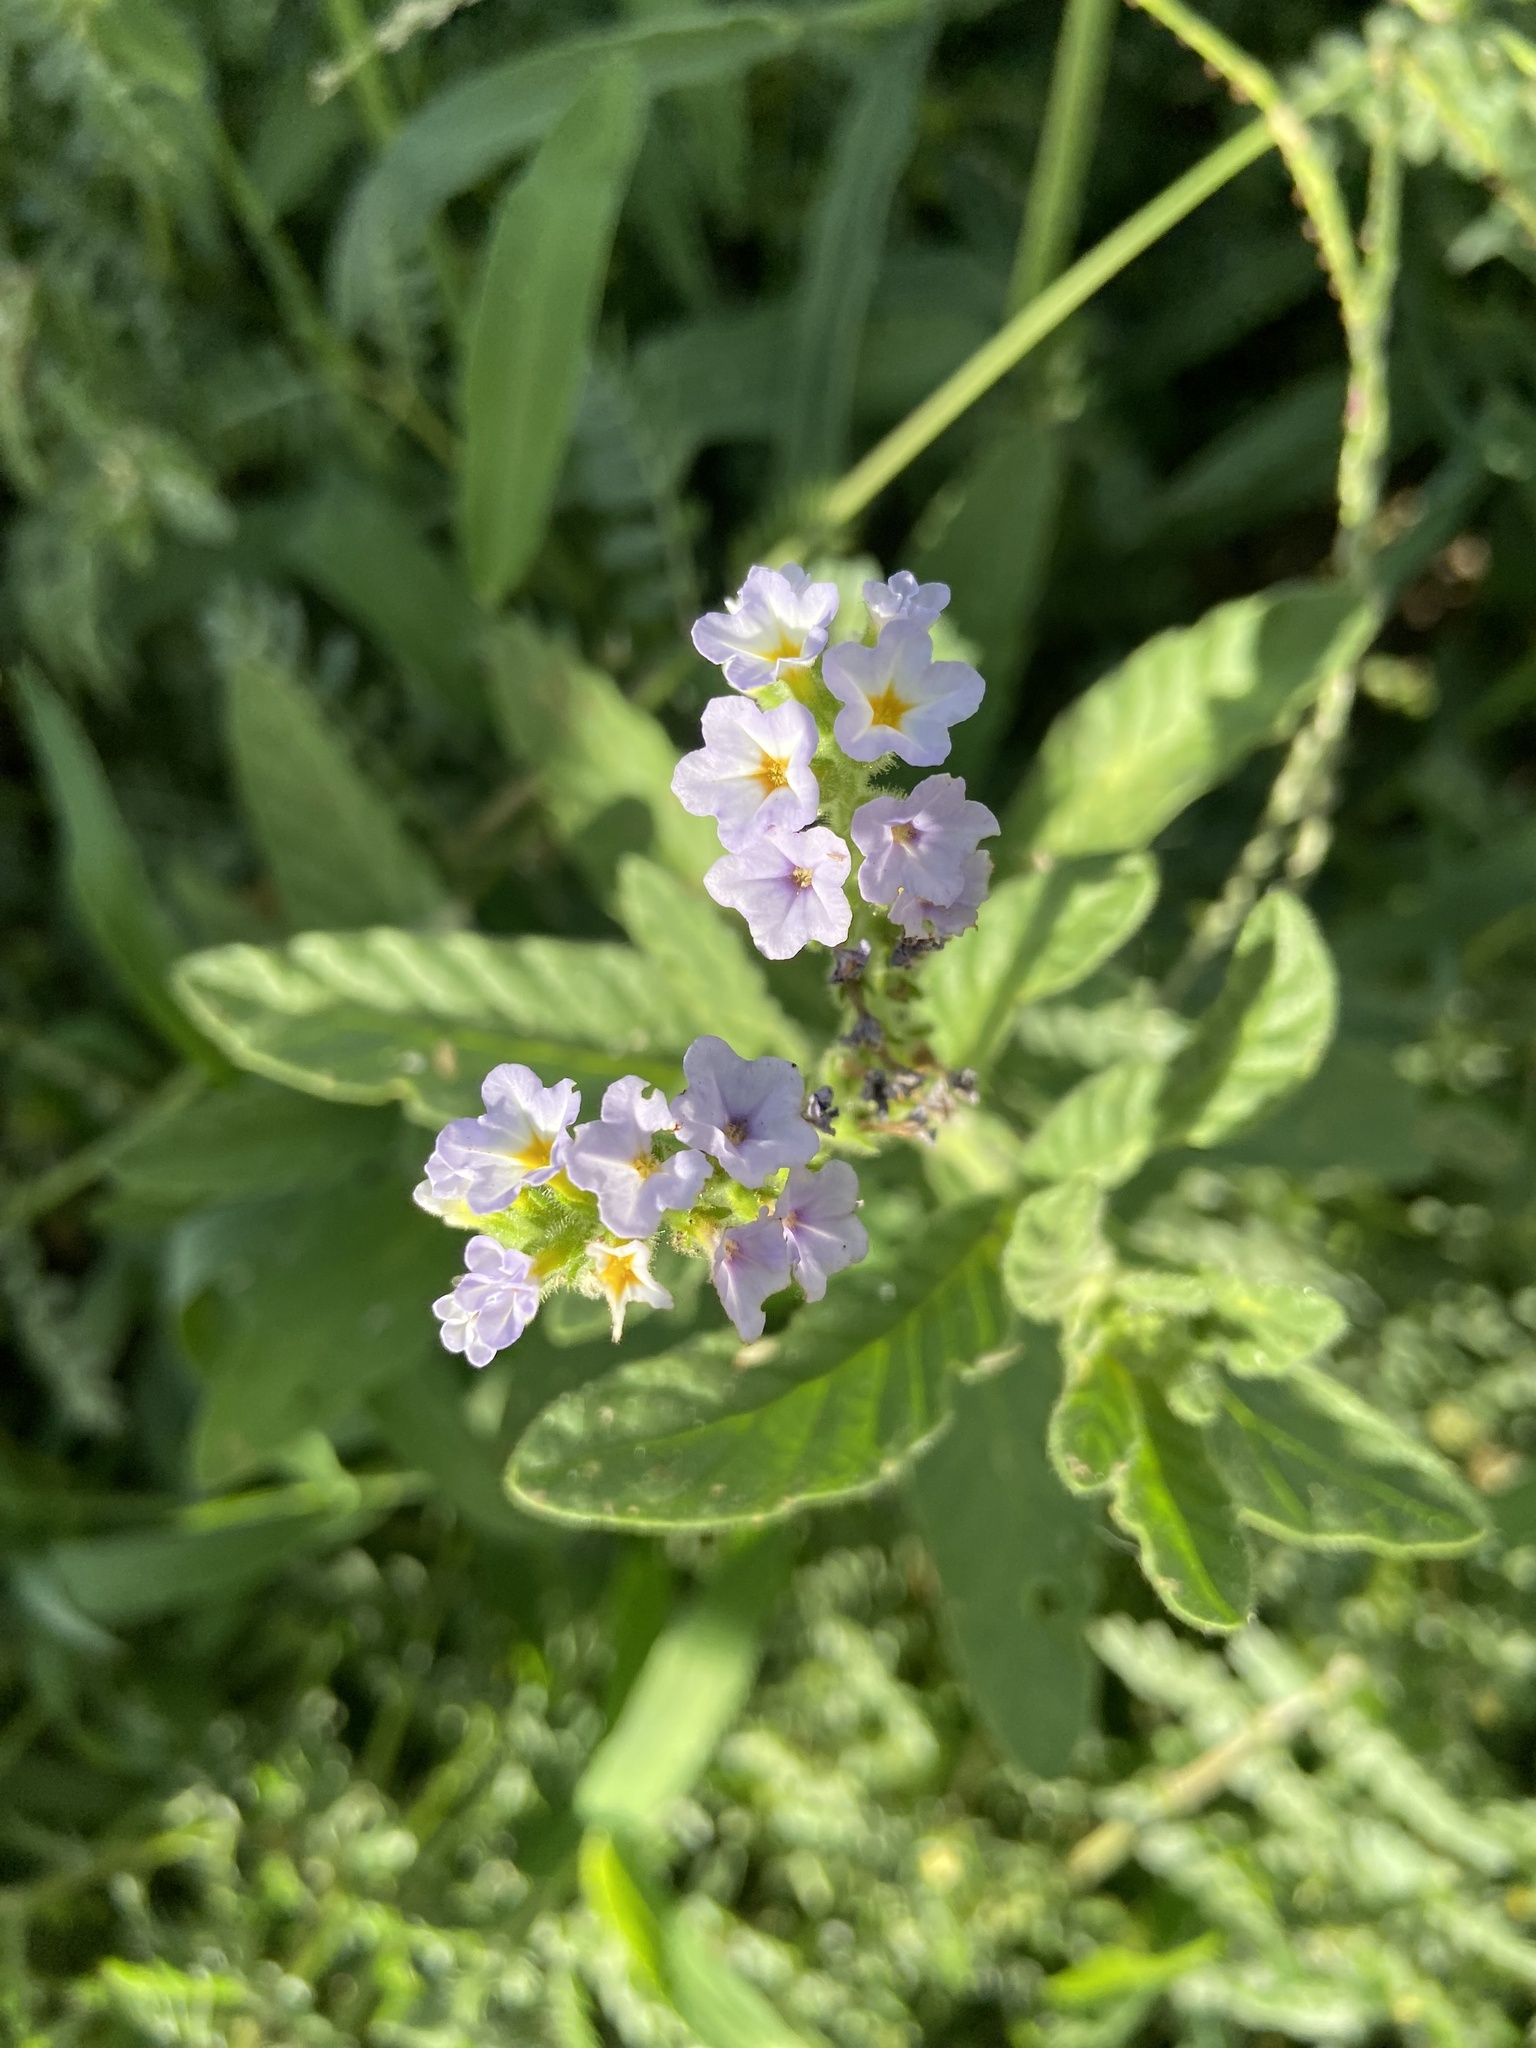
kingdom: Plantae
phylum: Tracheophyta
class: Magnoliopsida
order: Boraginales
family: Heliotropiaceae
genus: Heliotropium
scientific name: Heliotropium amplexicaule
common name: Clasping heliotrope
